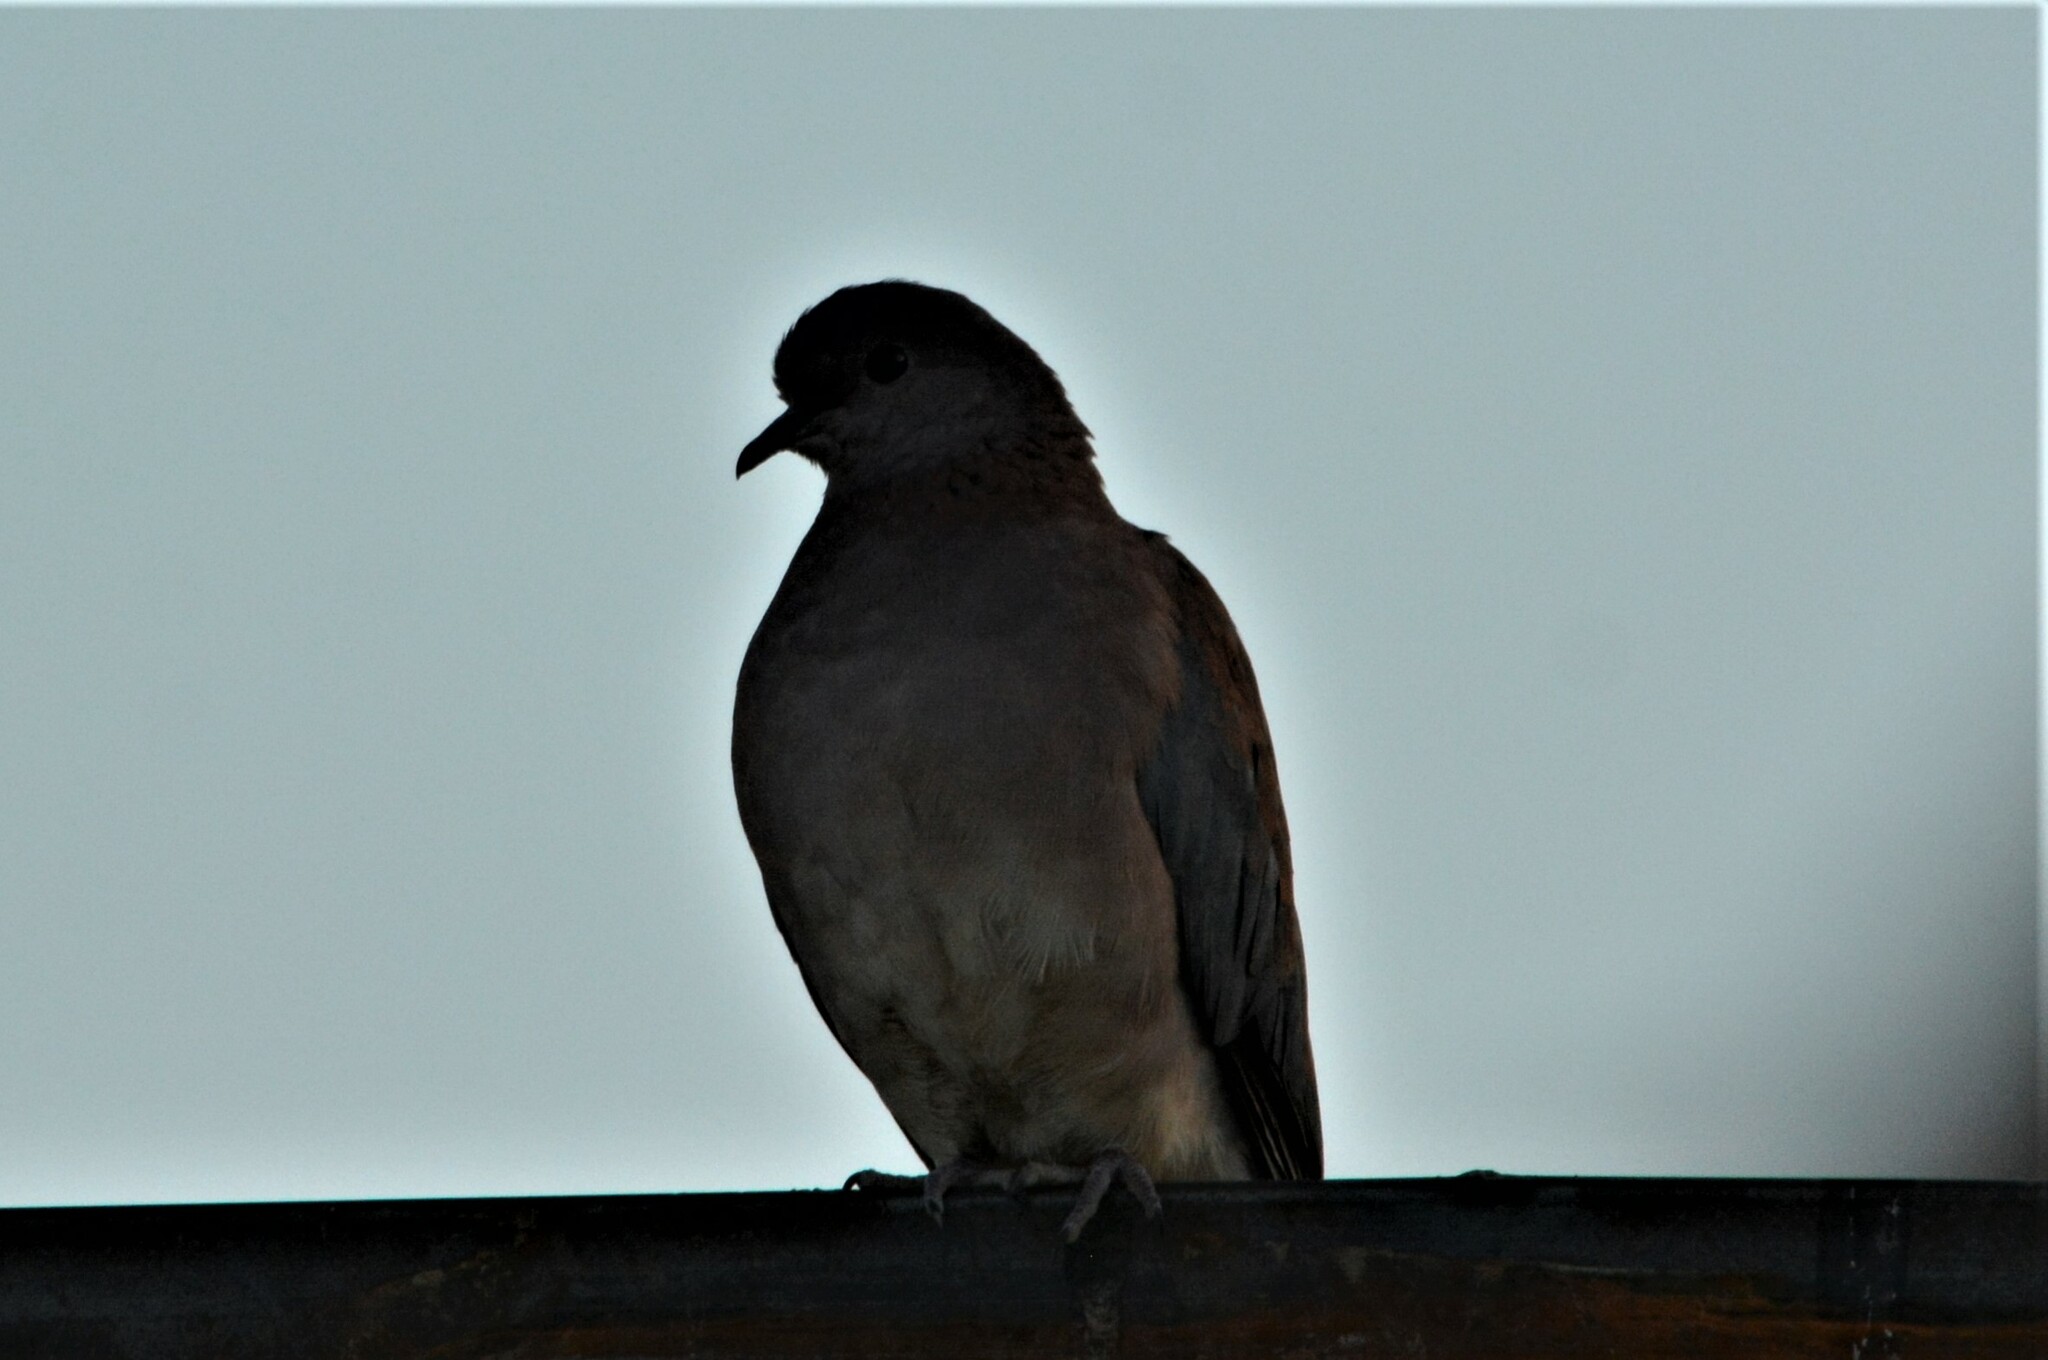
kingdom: Animalia
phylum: Chordata
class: Aves
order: Columbiformes
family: Columbidae
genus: Spilopelia
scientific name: Spilopelia senegalensis
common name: Laughing dove
